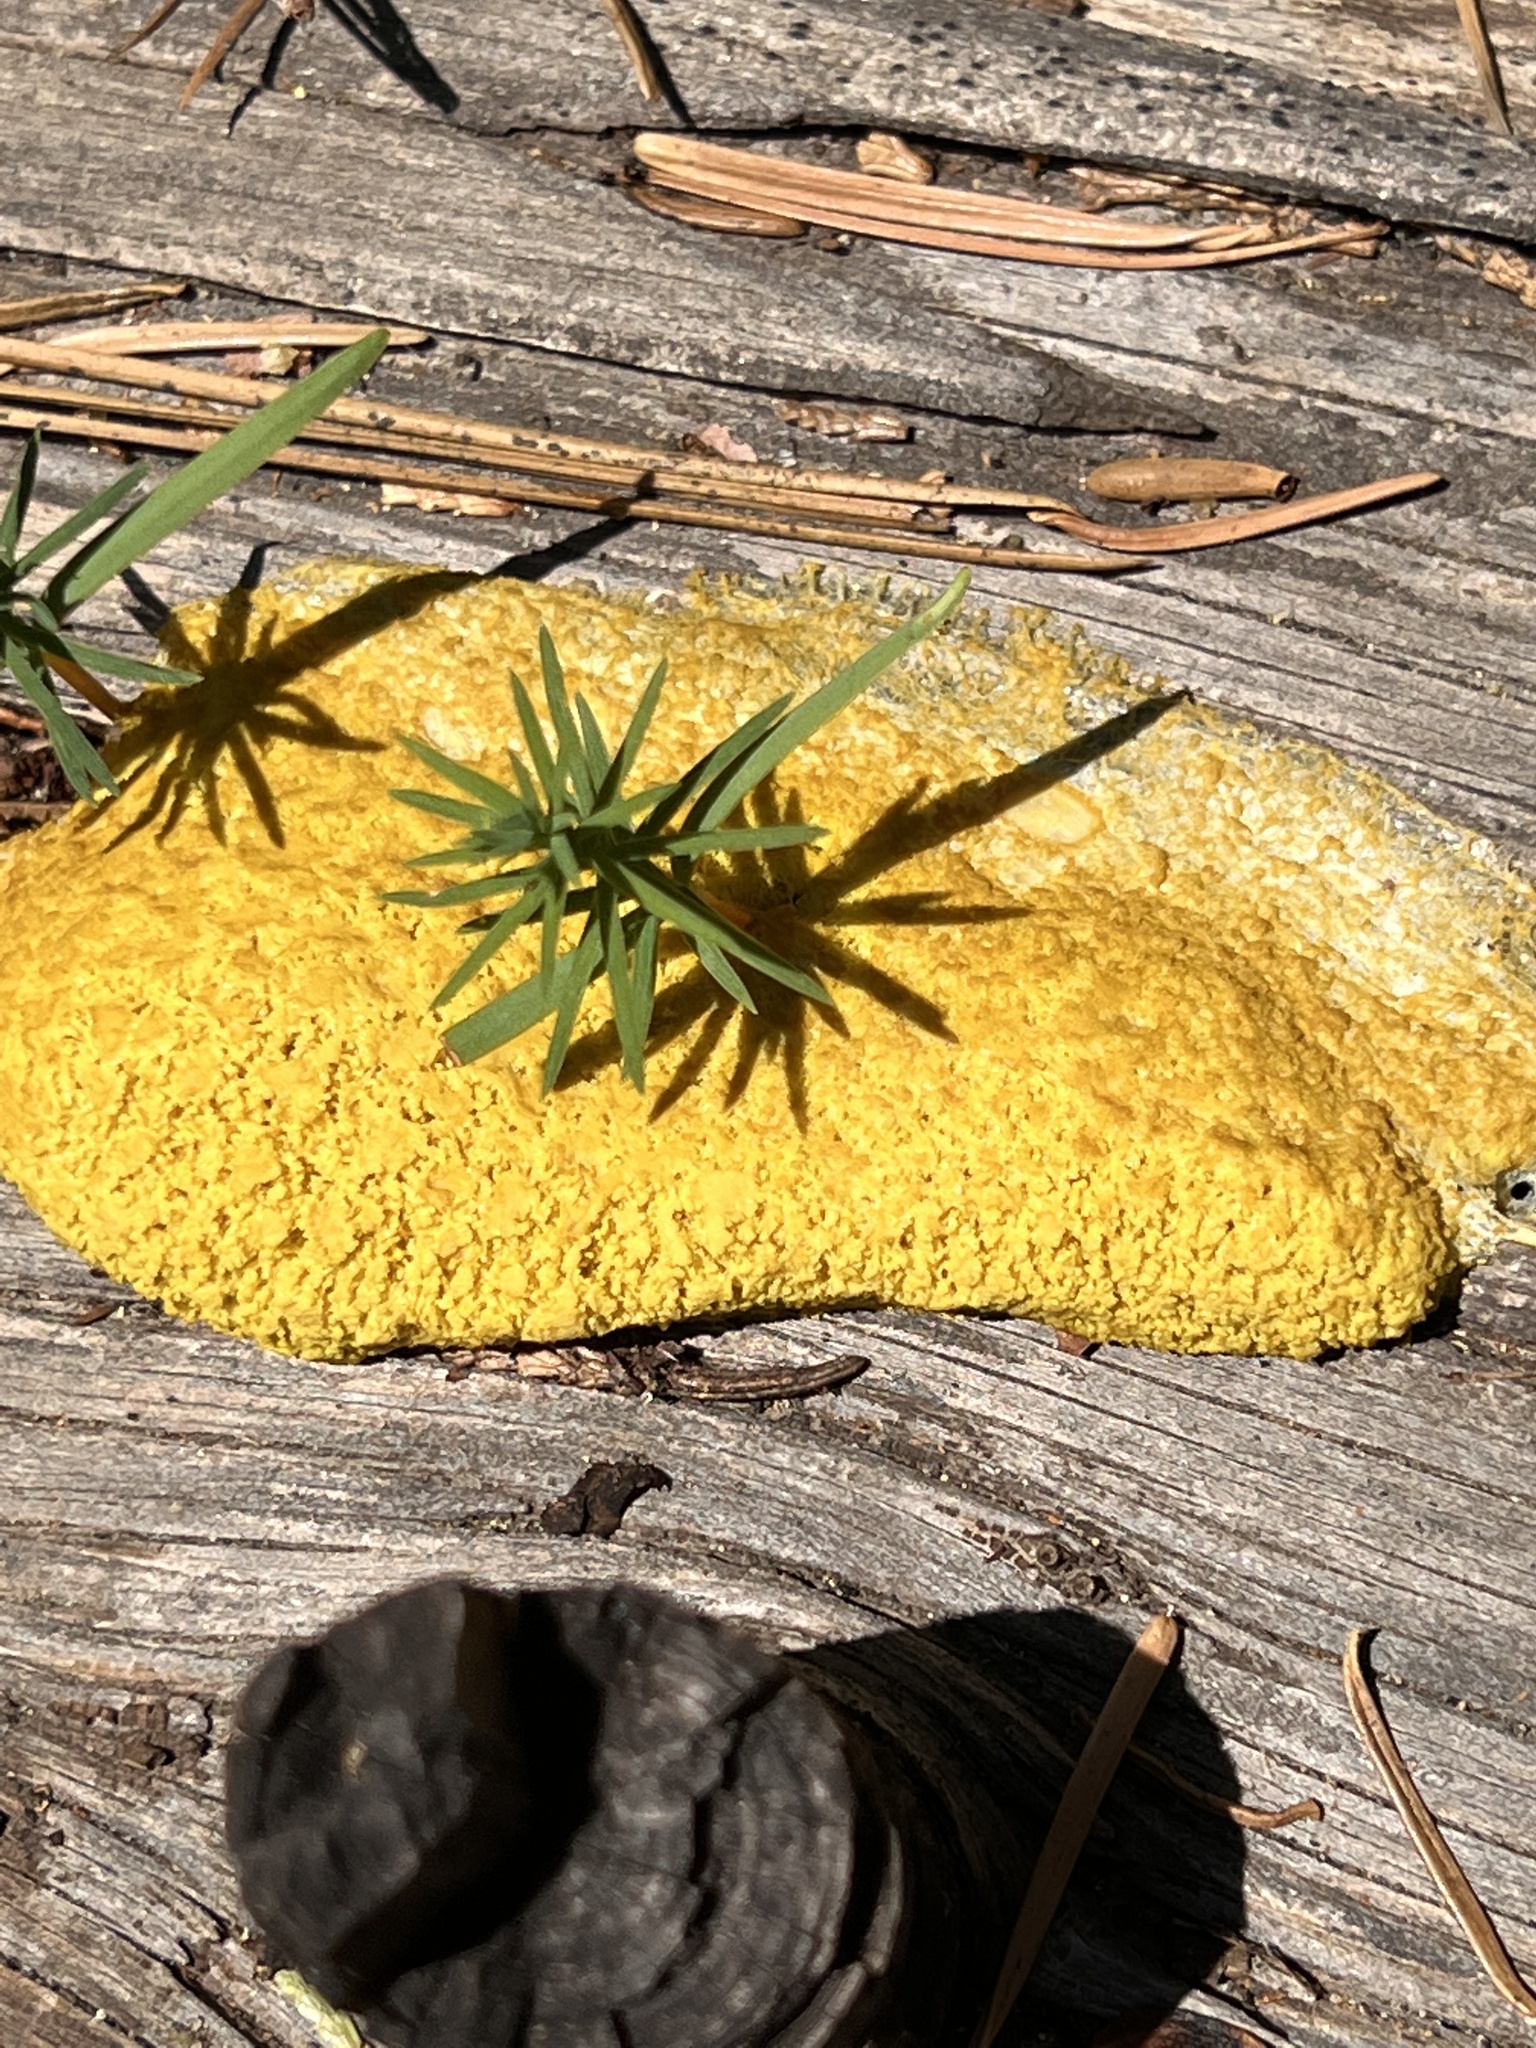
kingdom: Protozoa
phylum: Mycetozoa
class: Myxomycetes
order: Physarales
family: Physaraceae
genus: Fuligo
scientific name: Fuligo septica
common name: Dog vomit slime mold
